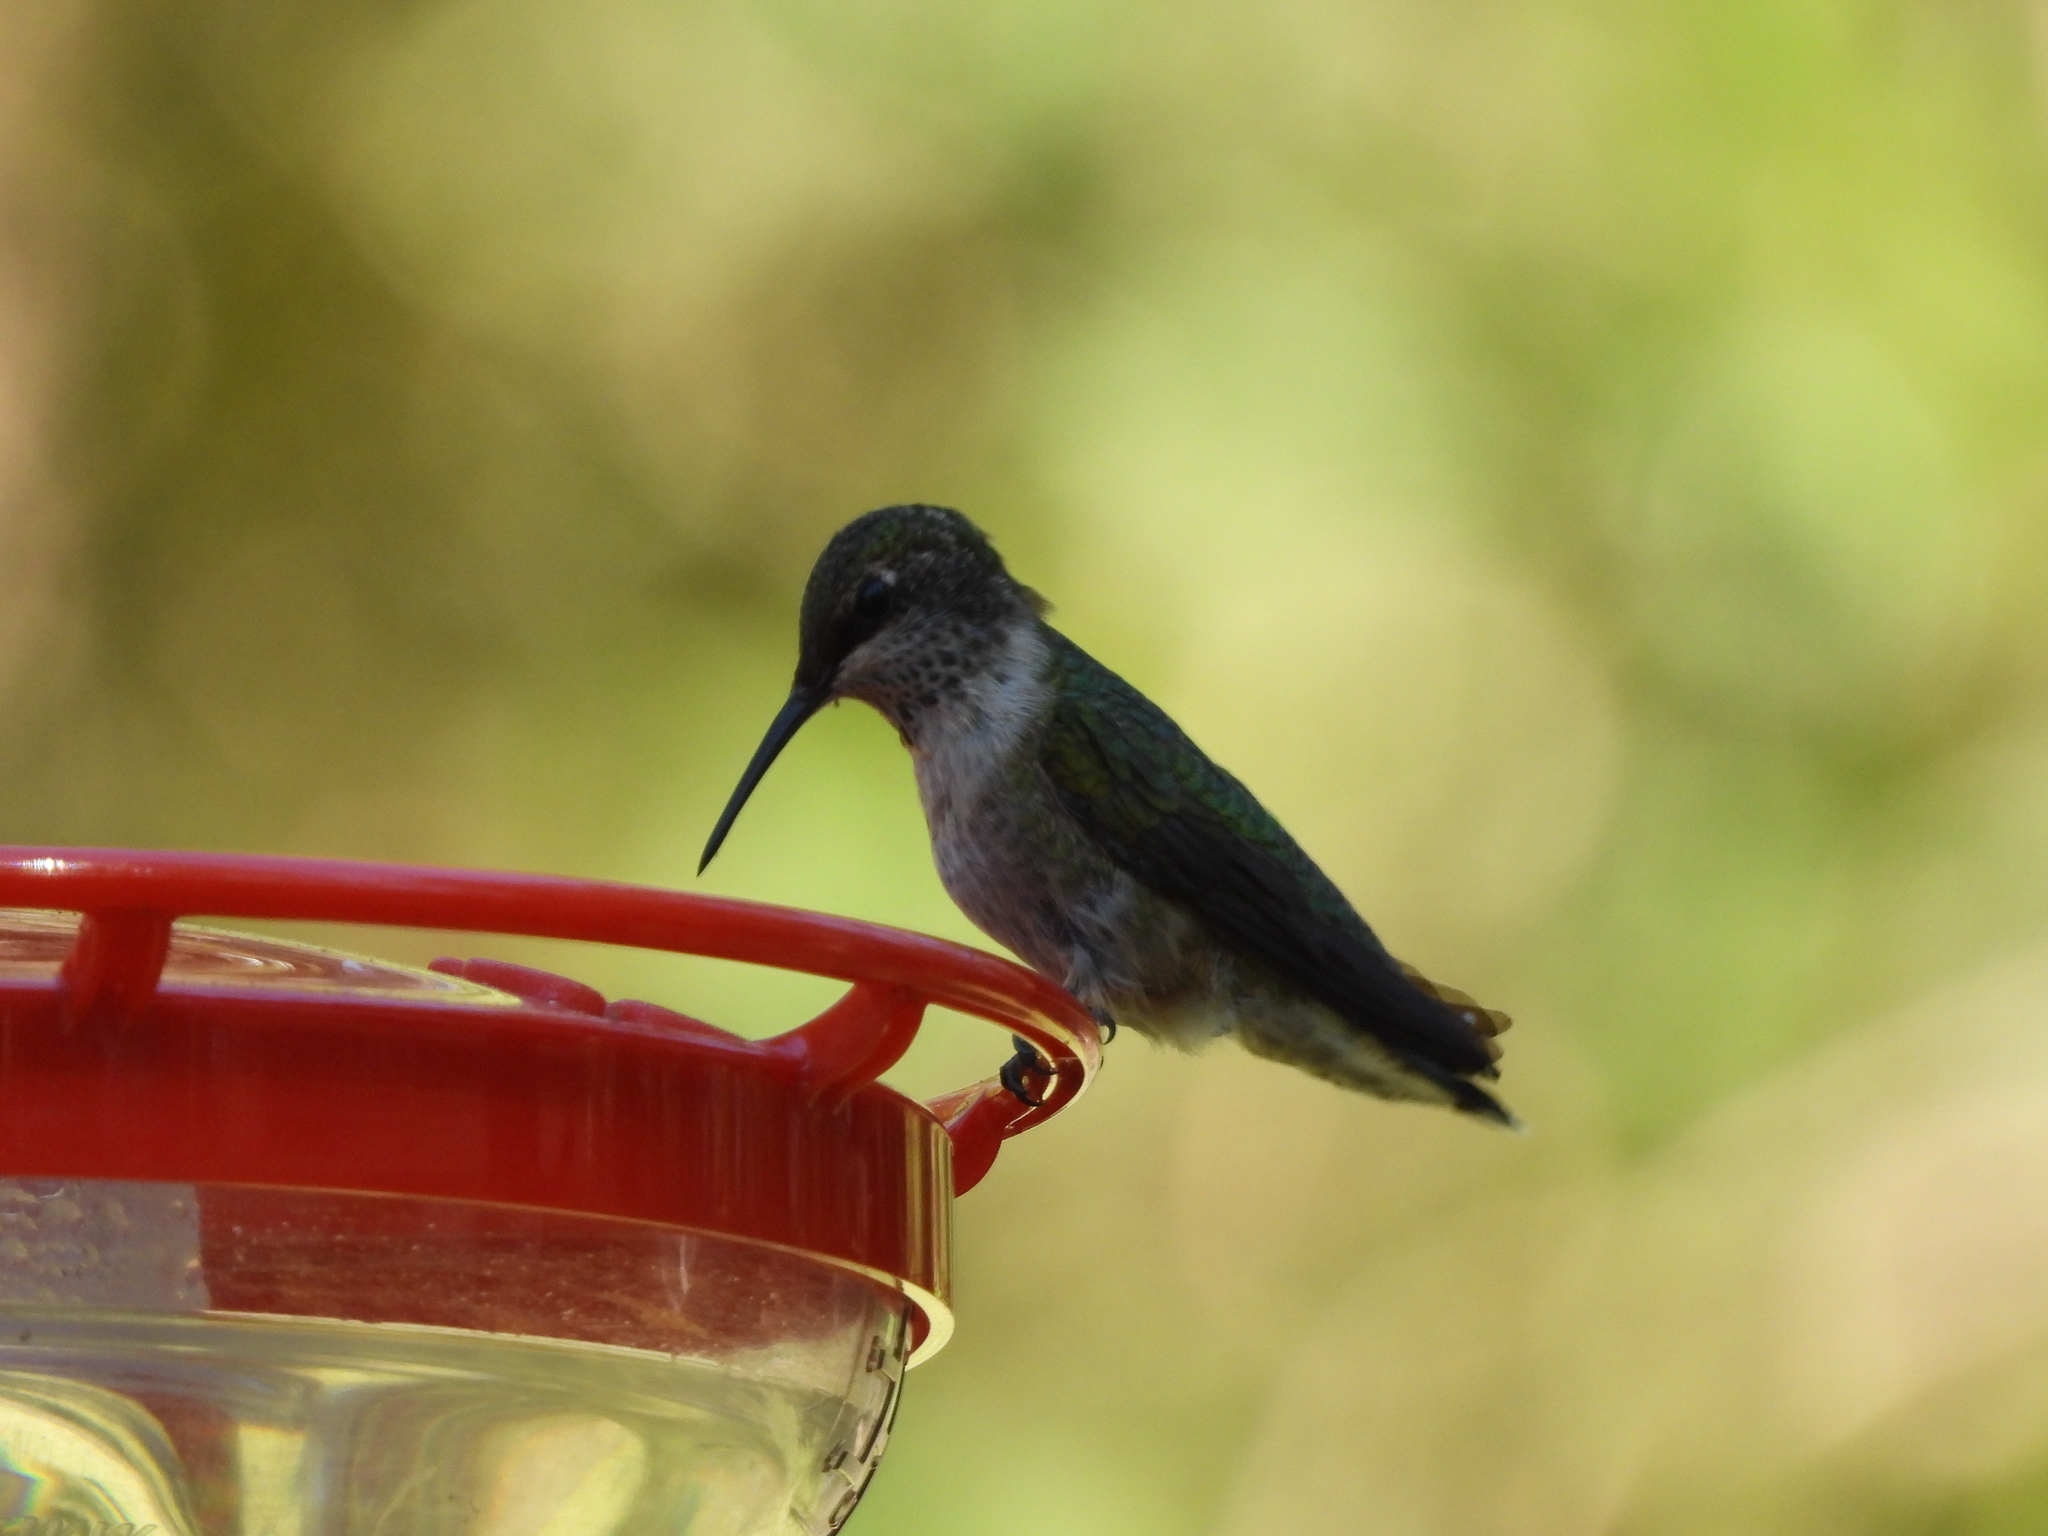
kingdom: Animalia
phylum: Chordata
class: Aves
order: Apodiformes
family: Trochilidae
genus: Archilochus
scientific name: Archilochus colubris
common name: Ruby-throated hummingbird
